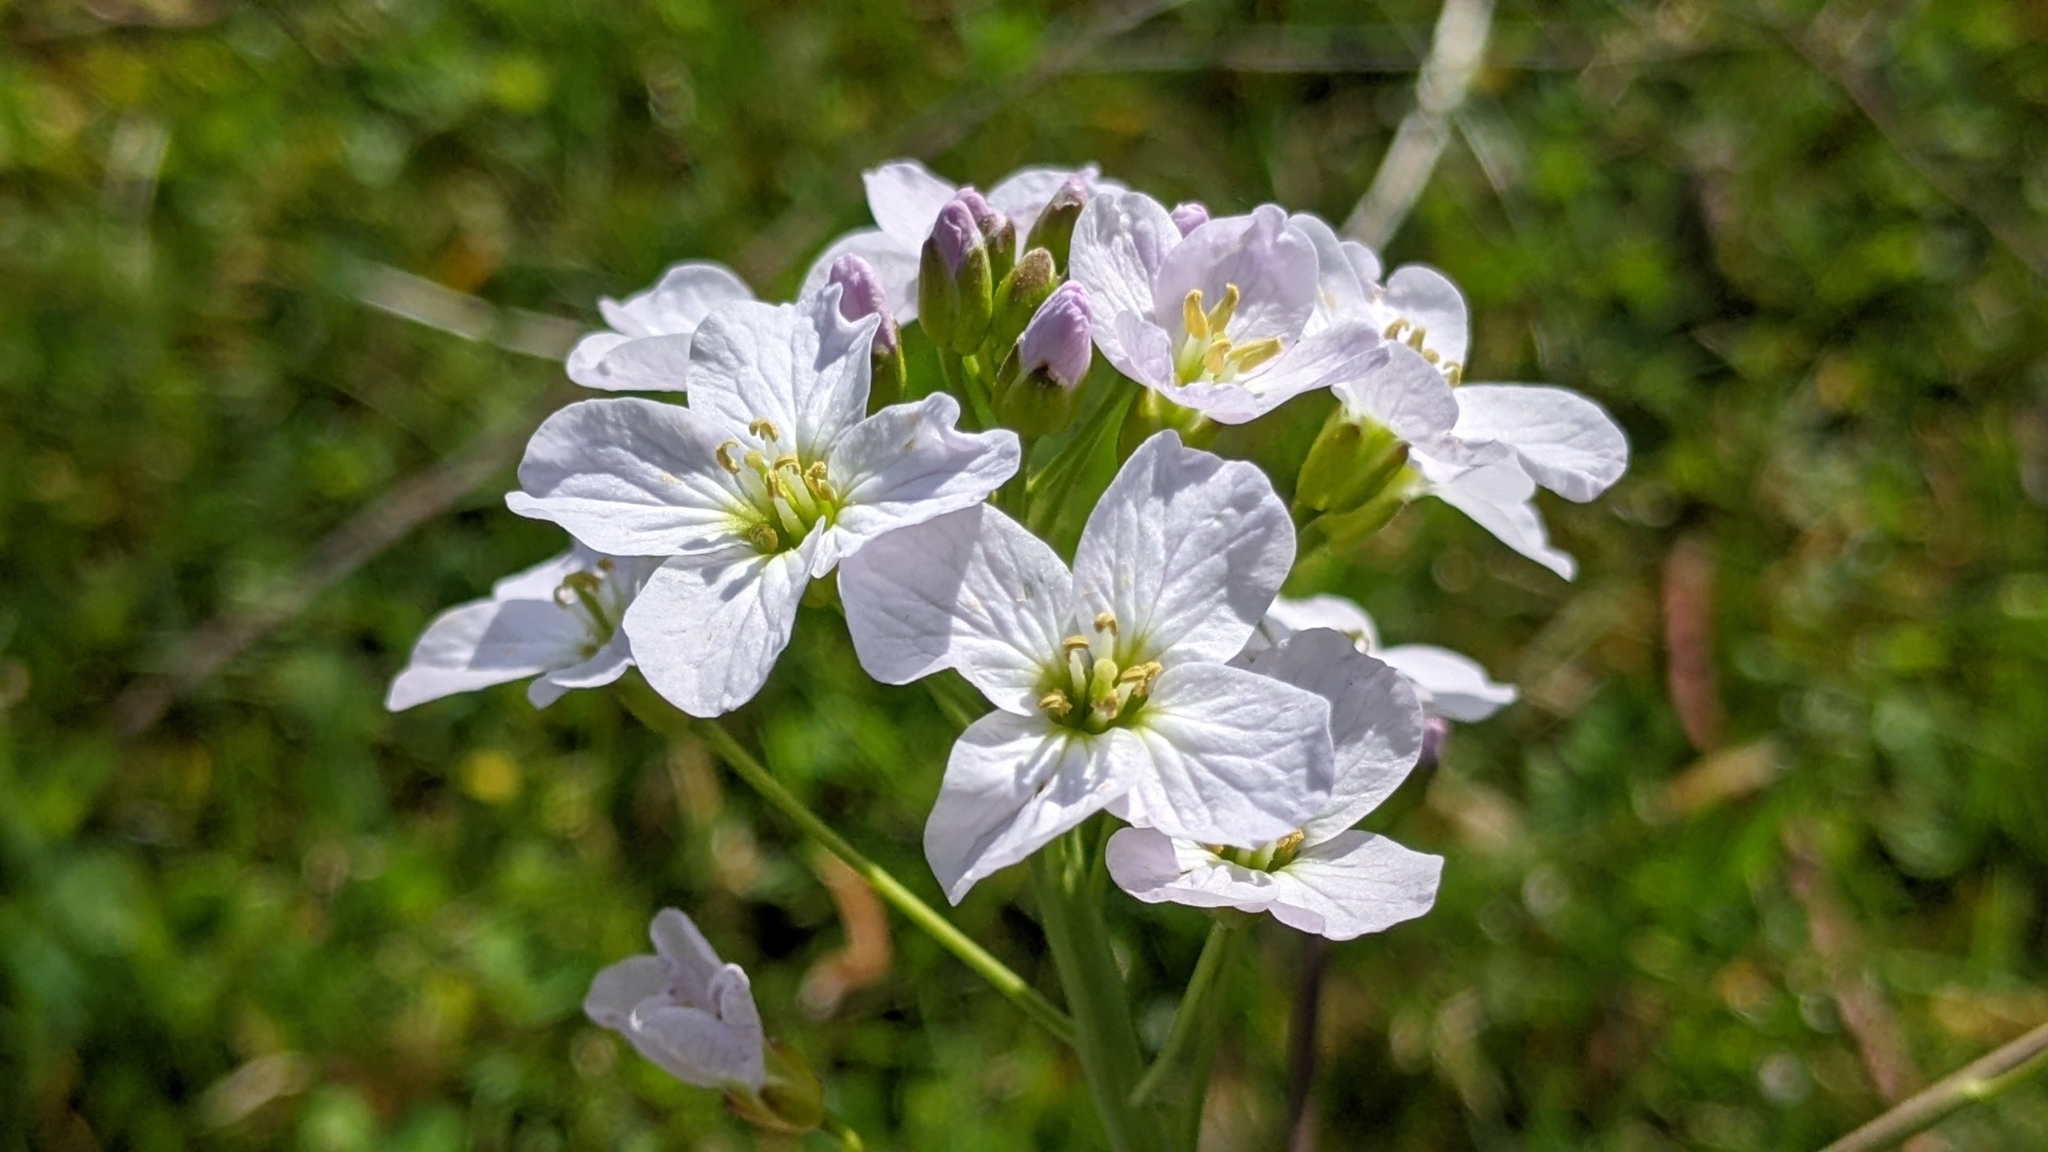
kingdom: Plantae
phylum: Tracheophyta
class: Magnoliopsida
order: Brassicales
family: Brassicaceae
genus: Cardamine
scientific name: Cardamine pratensis
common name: Cuckoo flower
